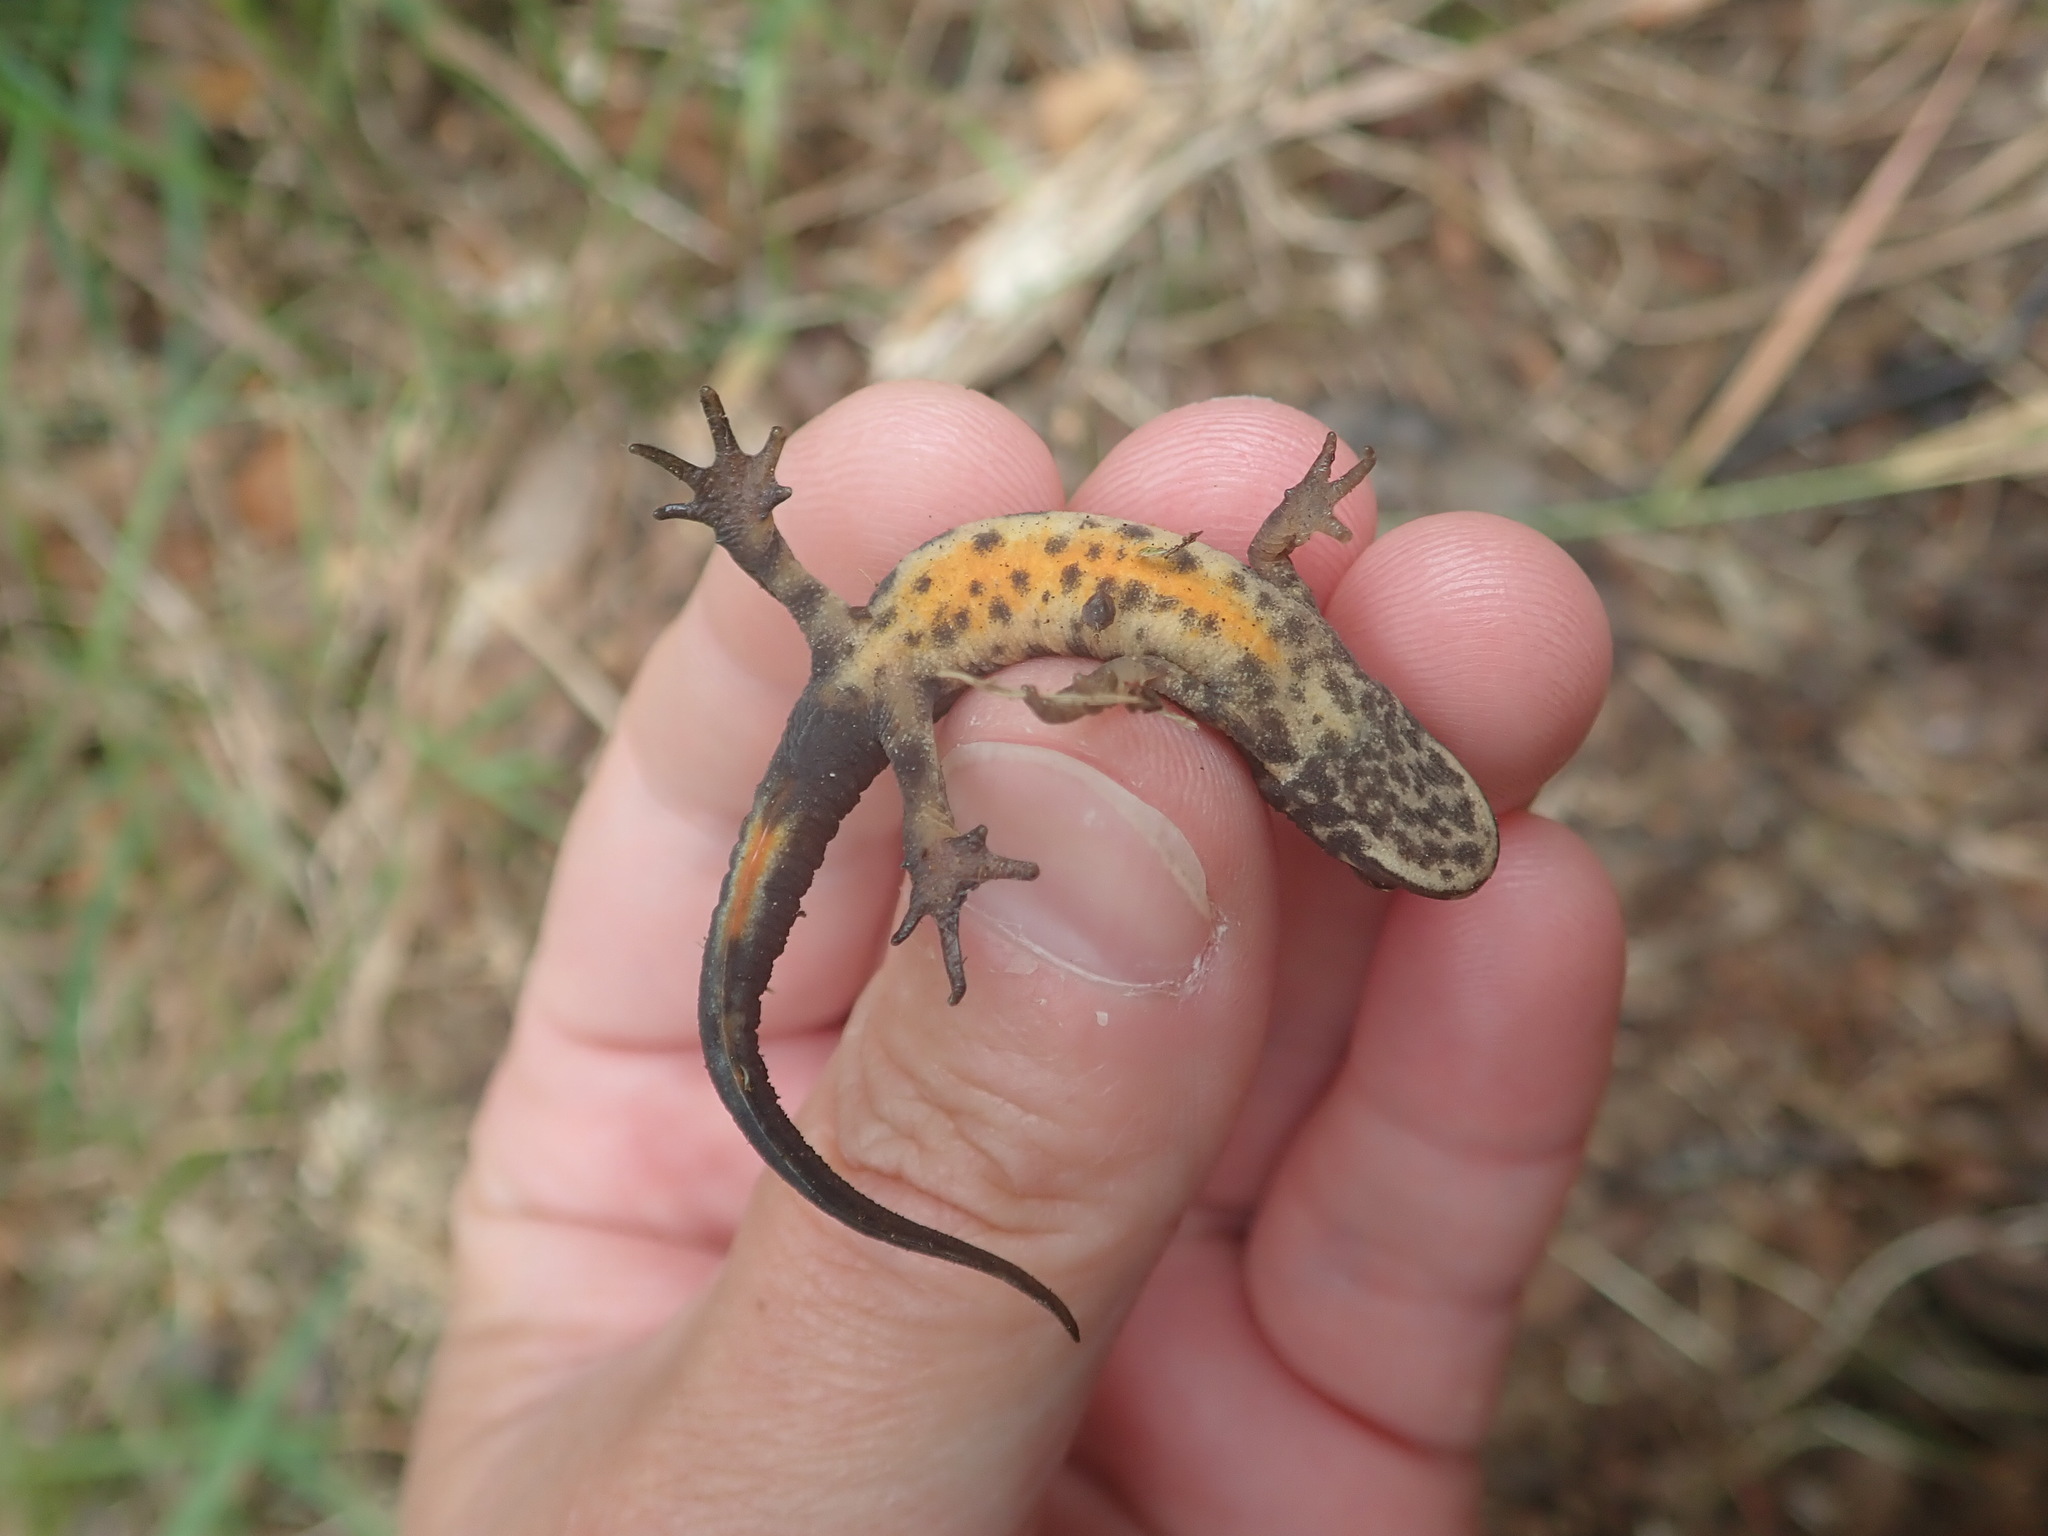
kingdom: Animalia
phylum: Chordata
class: Amphibia
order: Caudata
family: Salamandridae
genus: Lissotriton
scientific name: Lissotriton vulgaris
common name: Smooth newt
